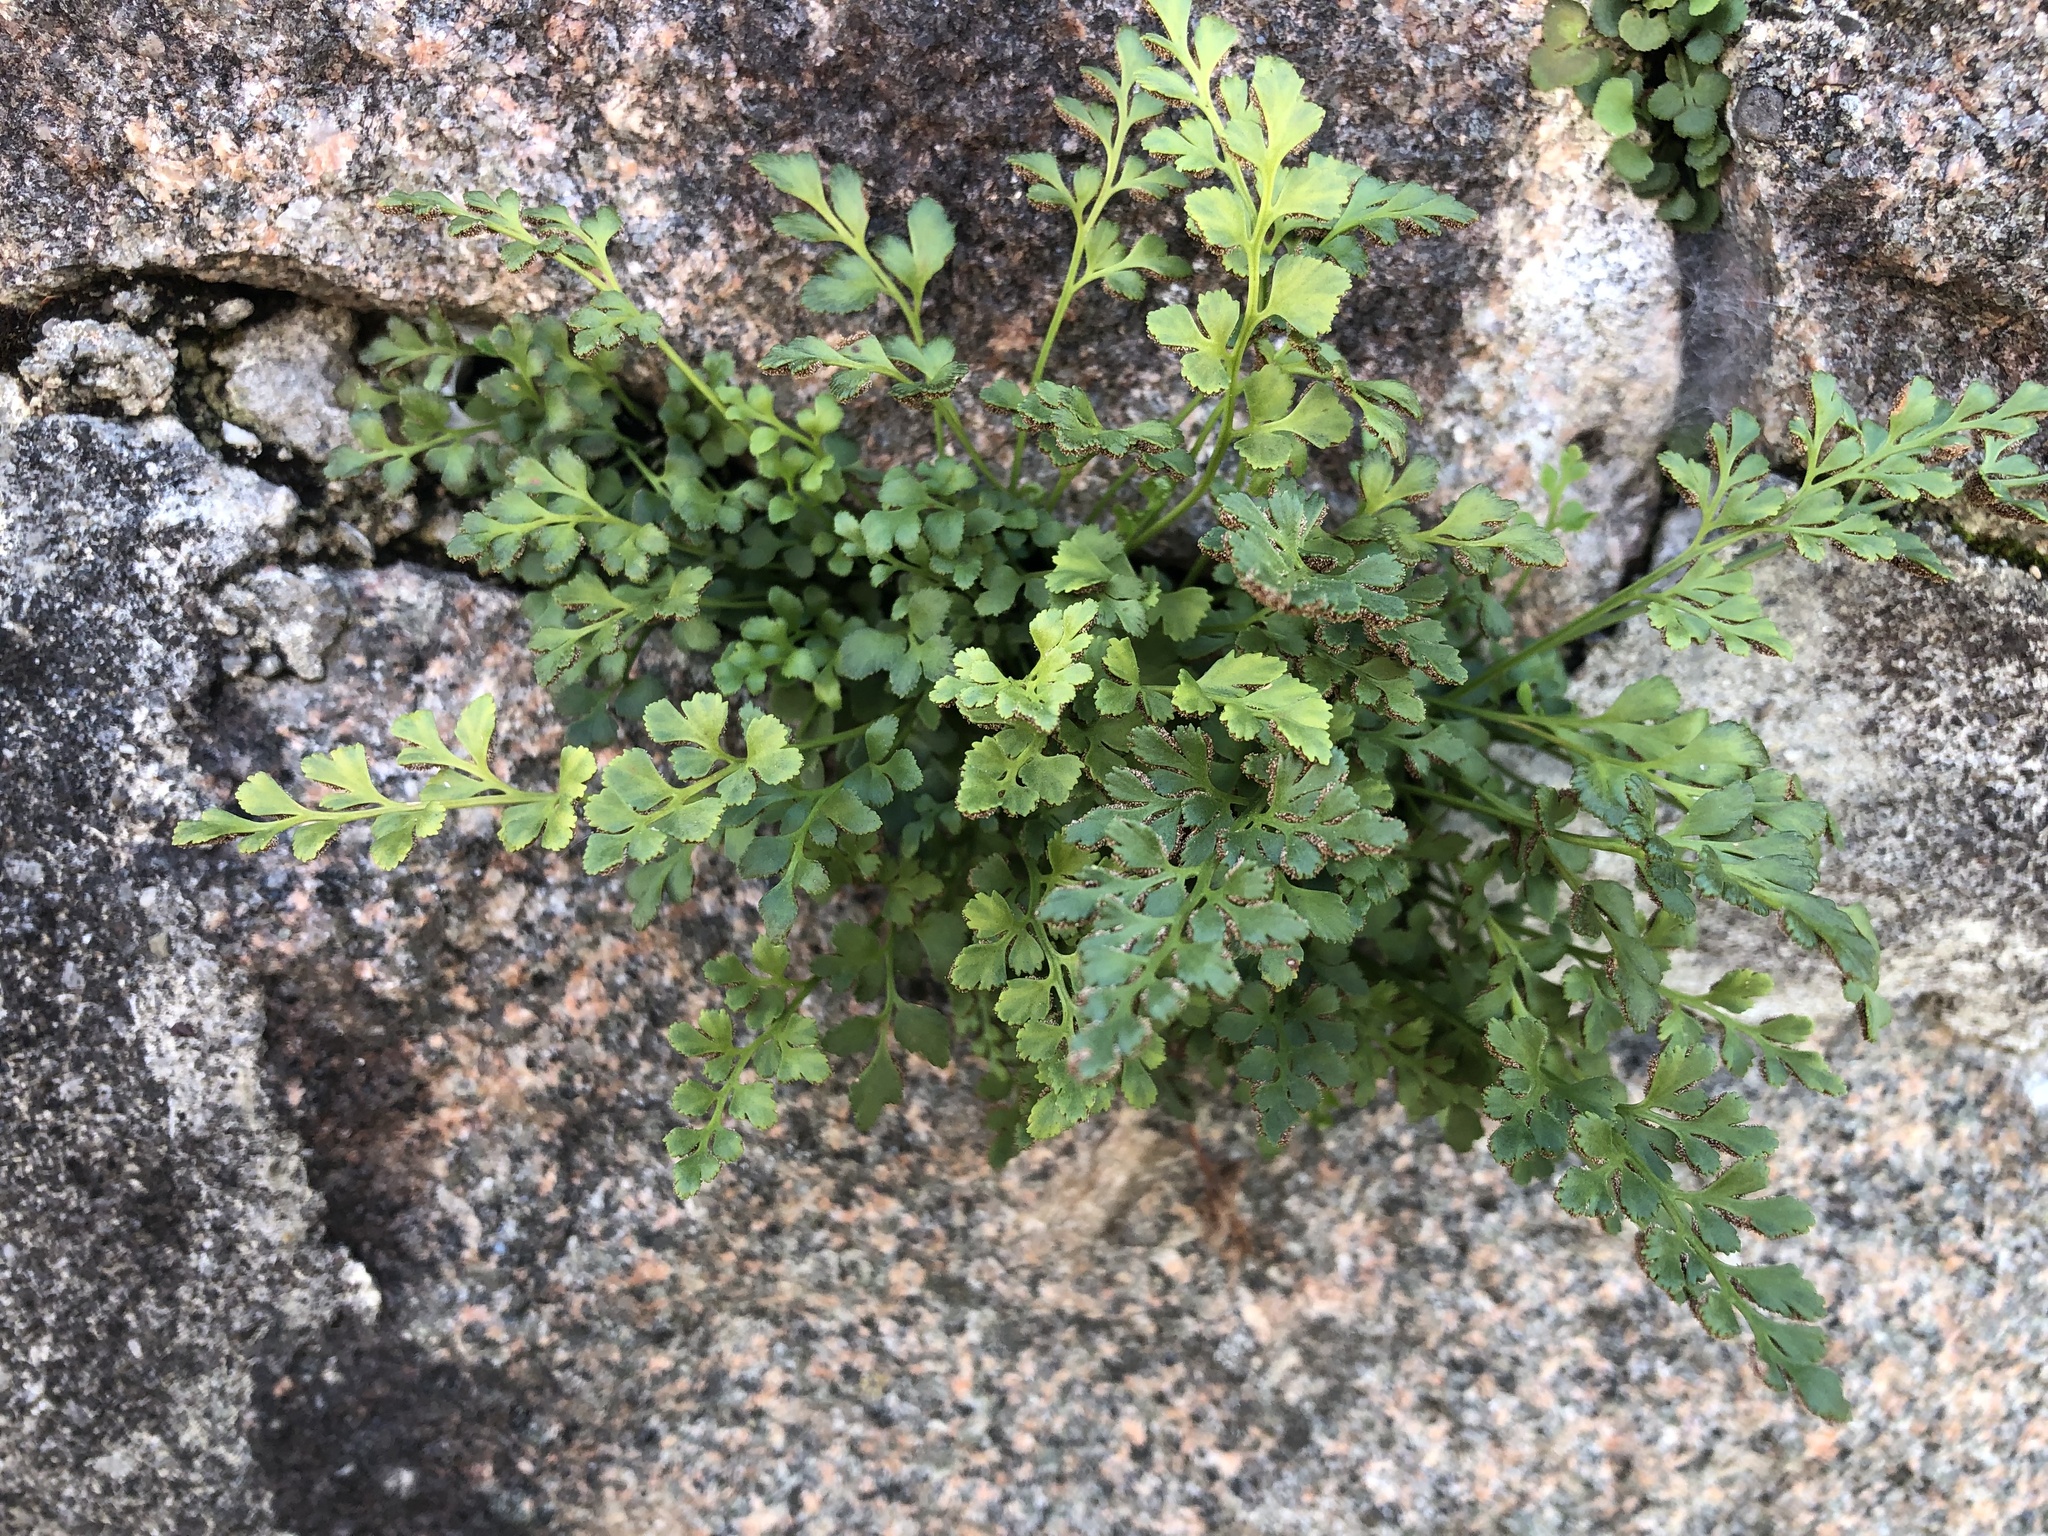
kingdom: Plantae
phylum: Tracheophyta
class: Polypodiopsida
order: Polypodiales
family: Aspleniaceae
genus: Asplenium
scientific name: Asplenium ruta-muraria
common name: Wall-rue
